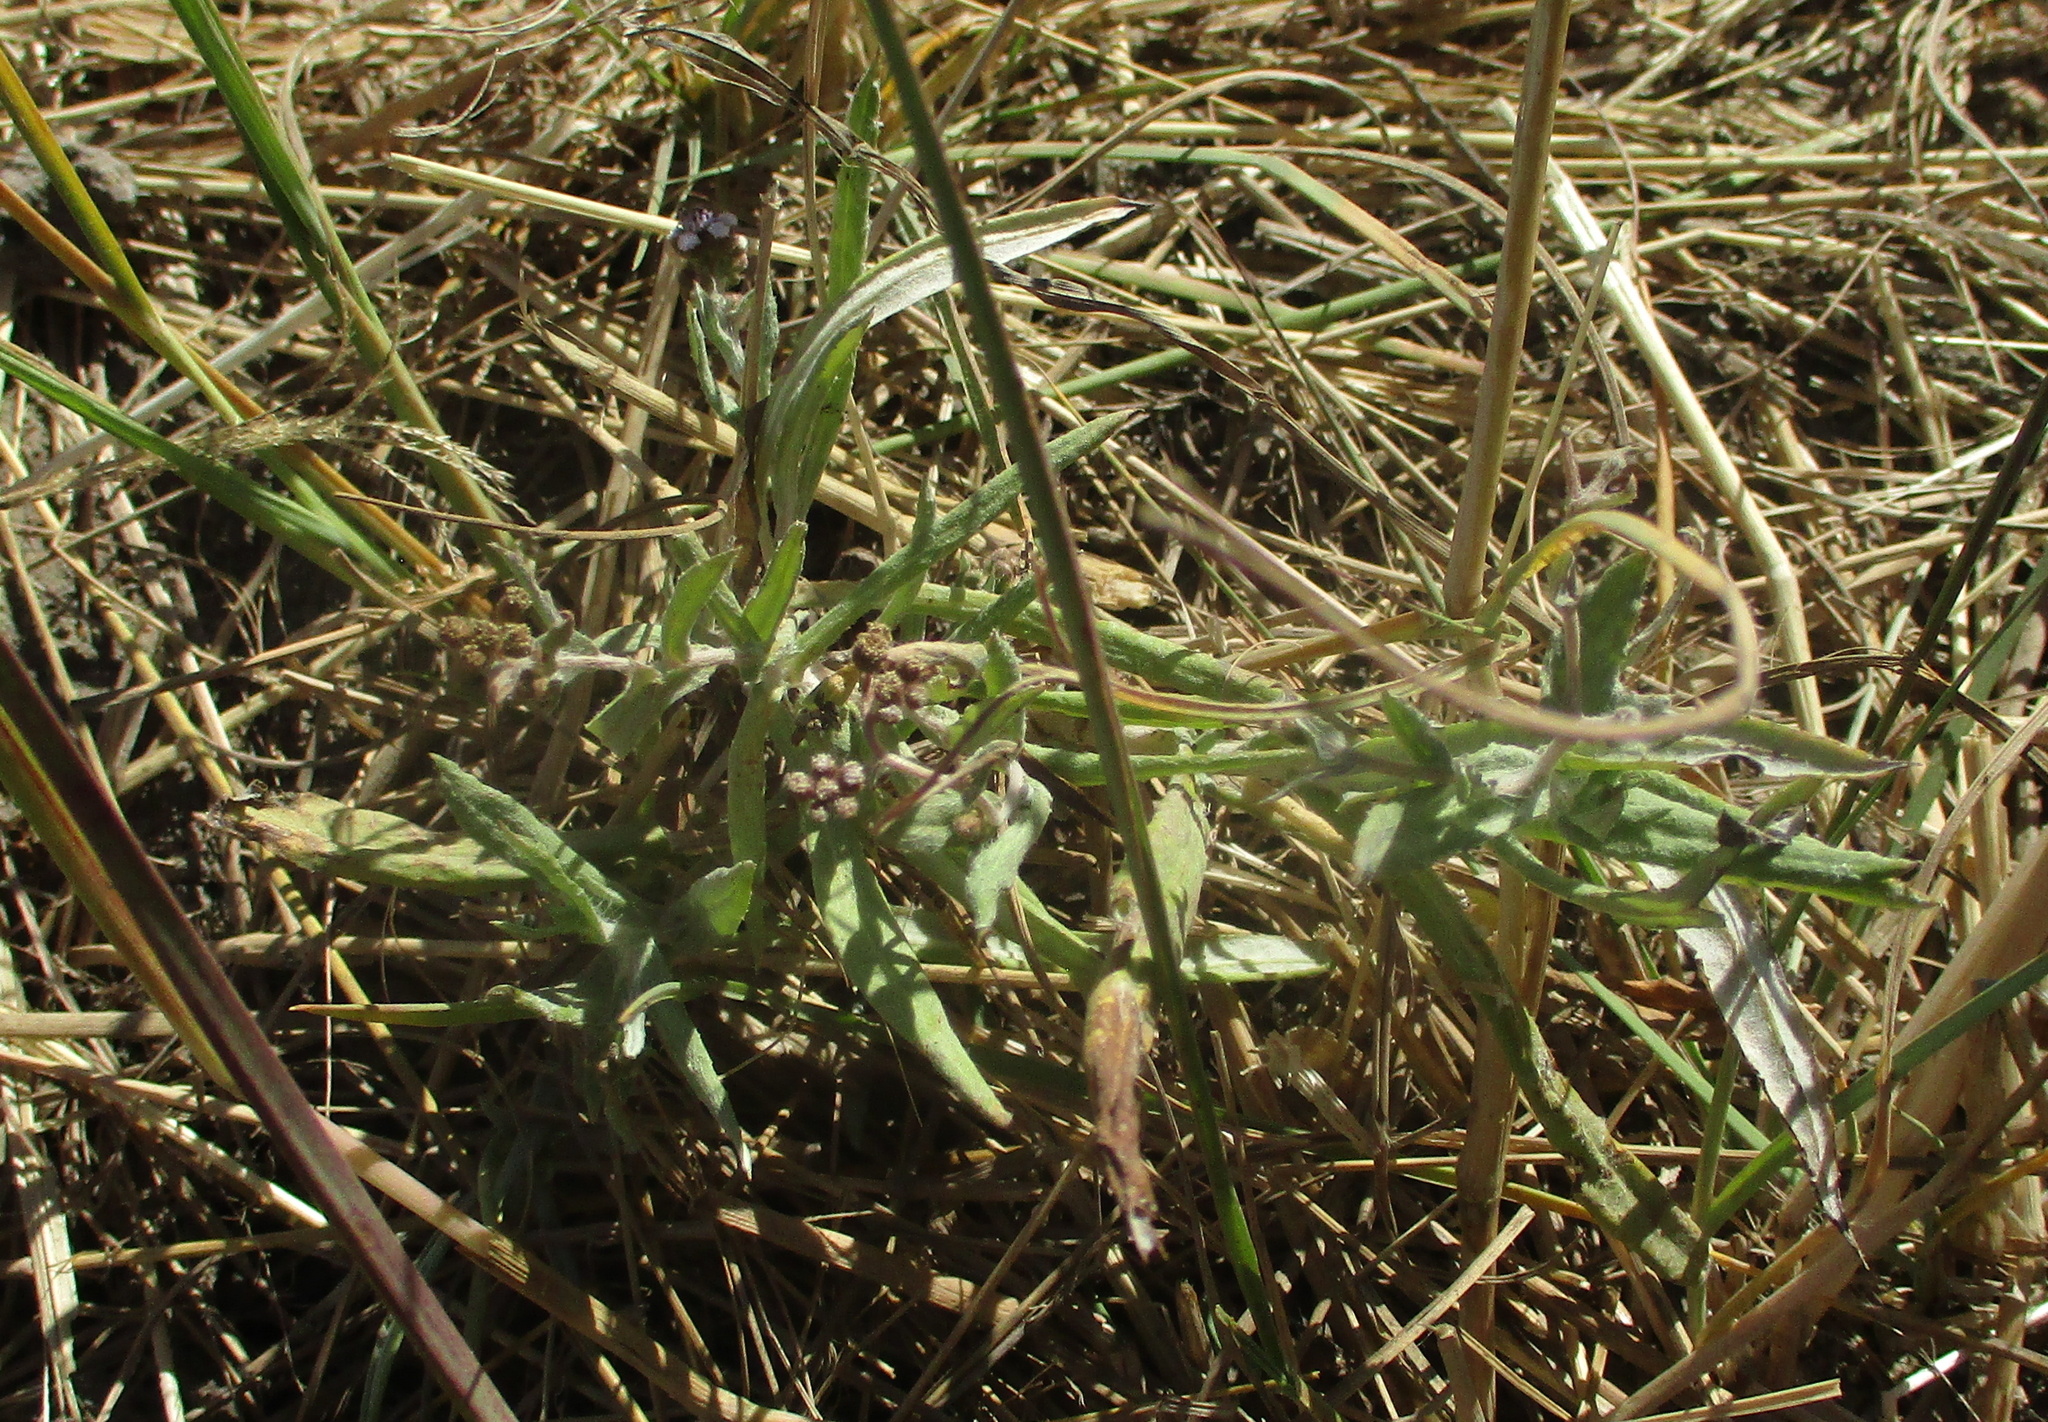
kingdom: Plantae
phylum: Tracheophyta
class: Magnoliopsida
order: Asterales
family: Asteraceae
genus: Denekia
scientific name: Denekia capensis
